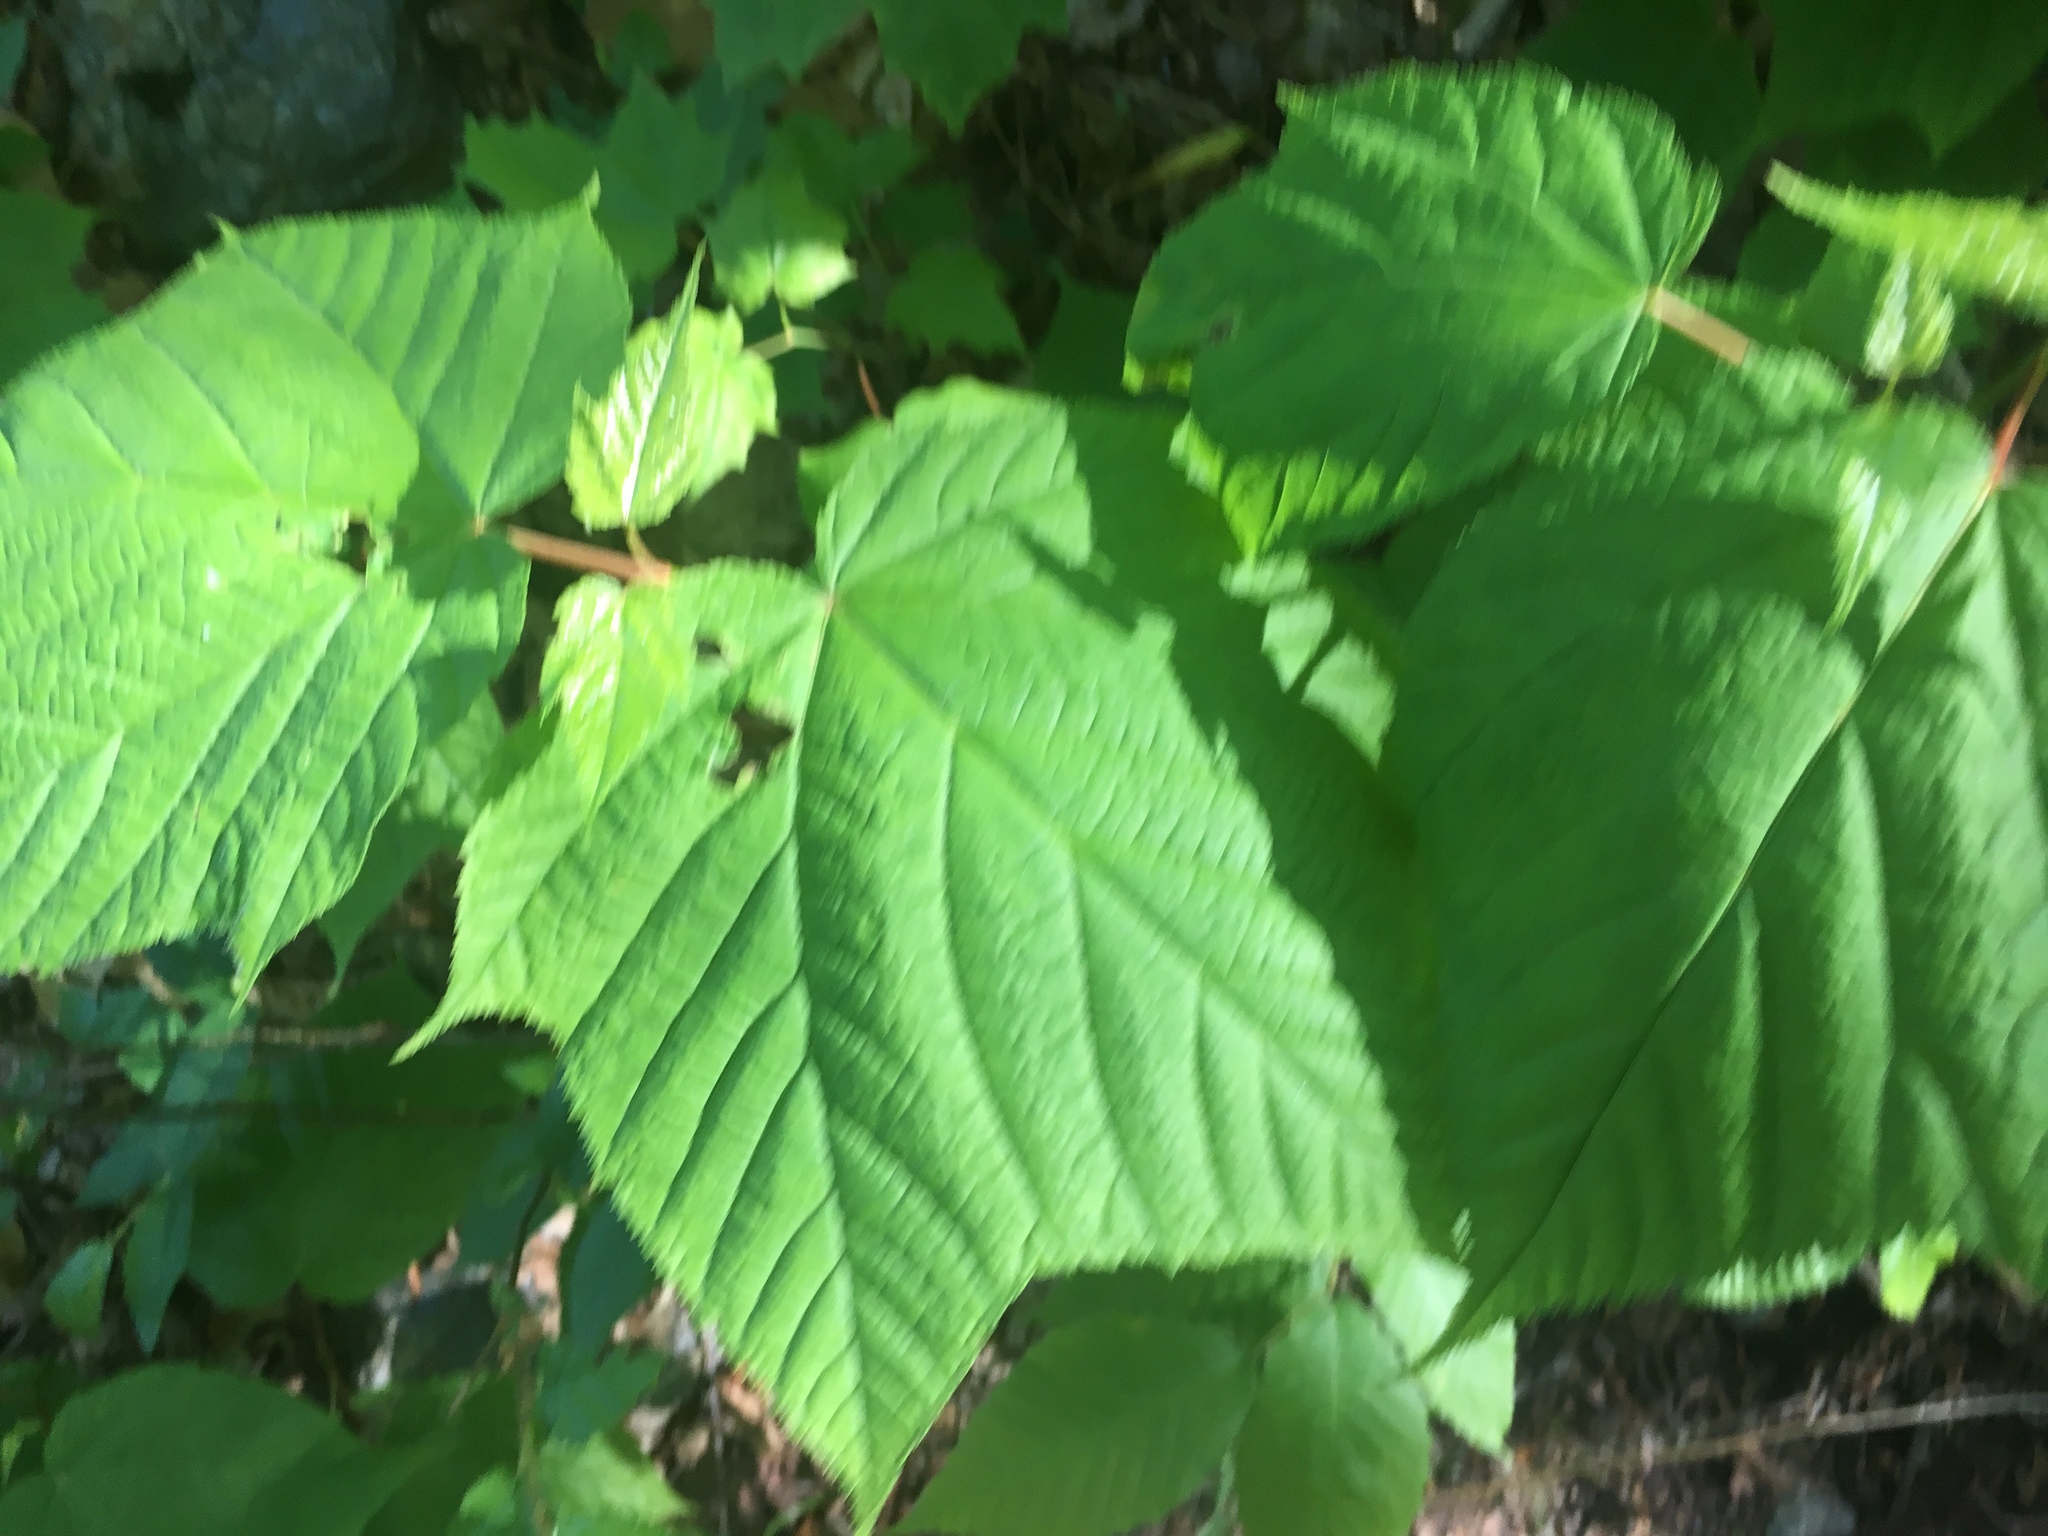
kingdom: Plantae
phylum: Tracheophyta
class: Magnoliopsida
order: Sapindales
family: Sapindaceae
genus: Acer
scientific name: Acer pensylvanicum
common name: Moosewood
